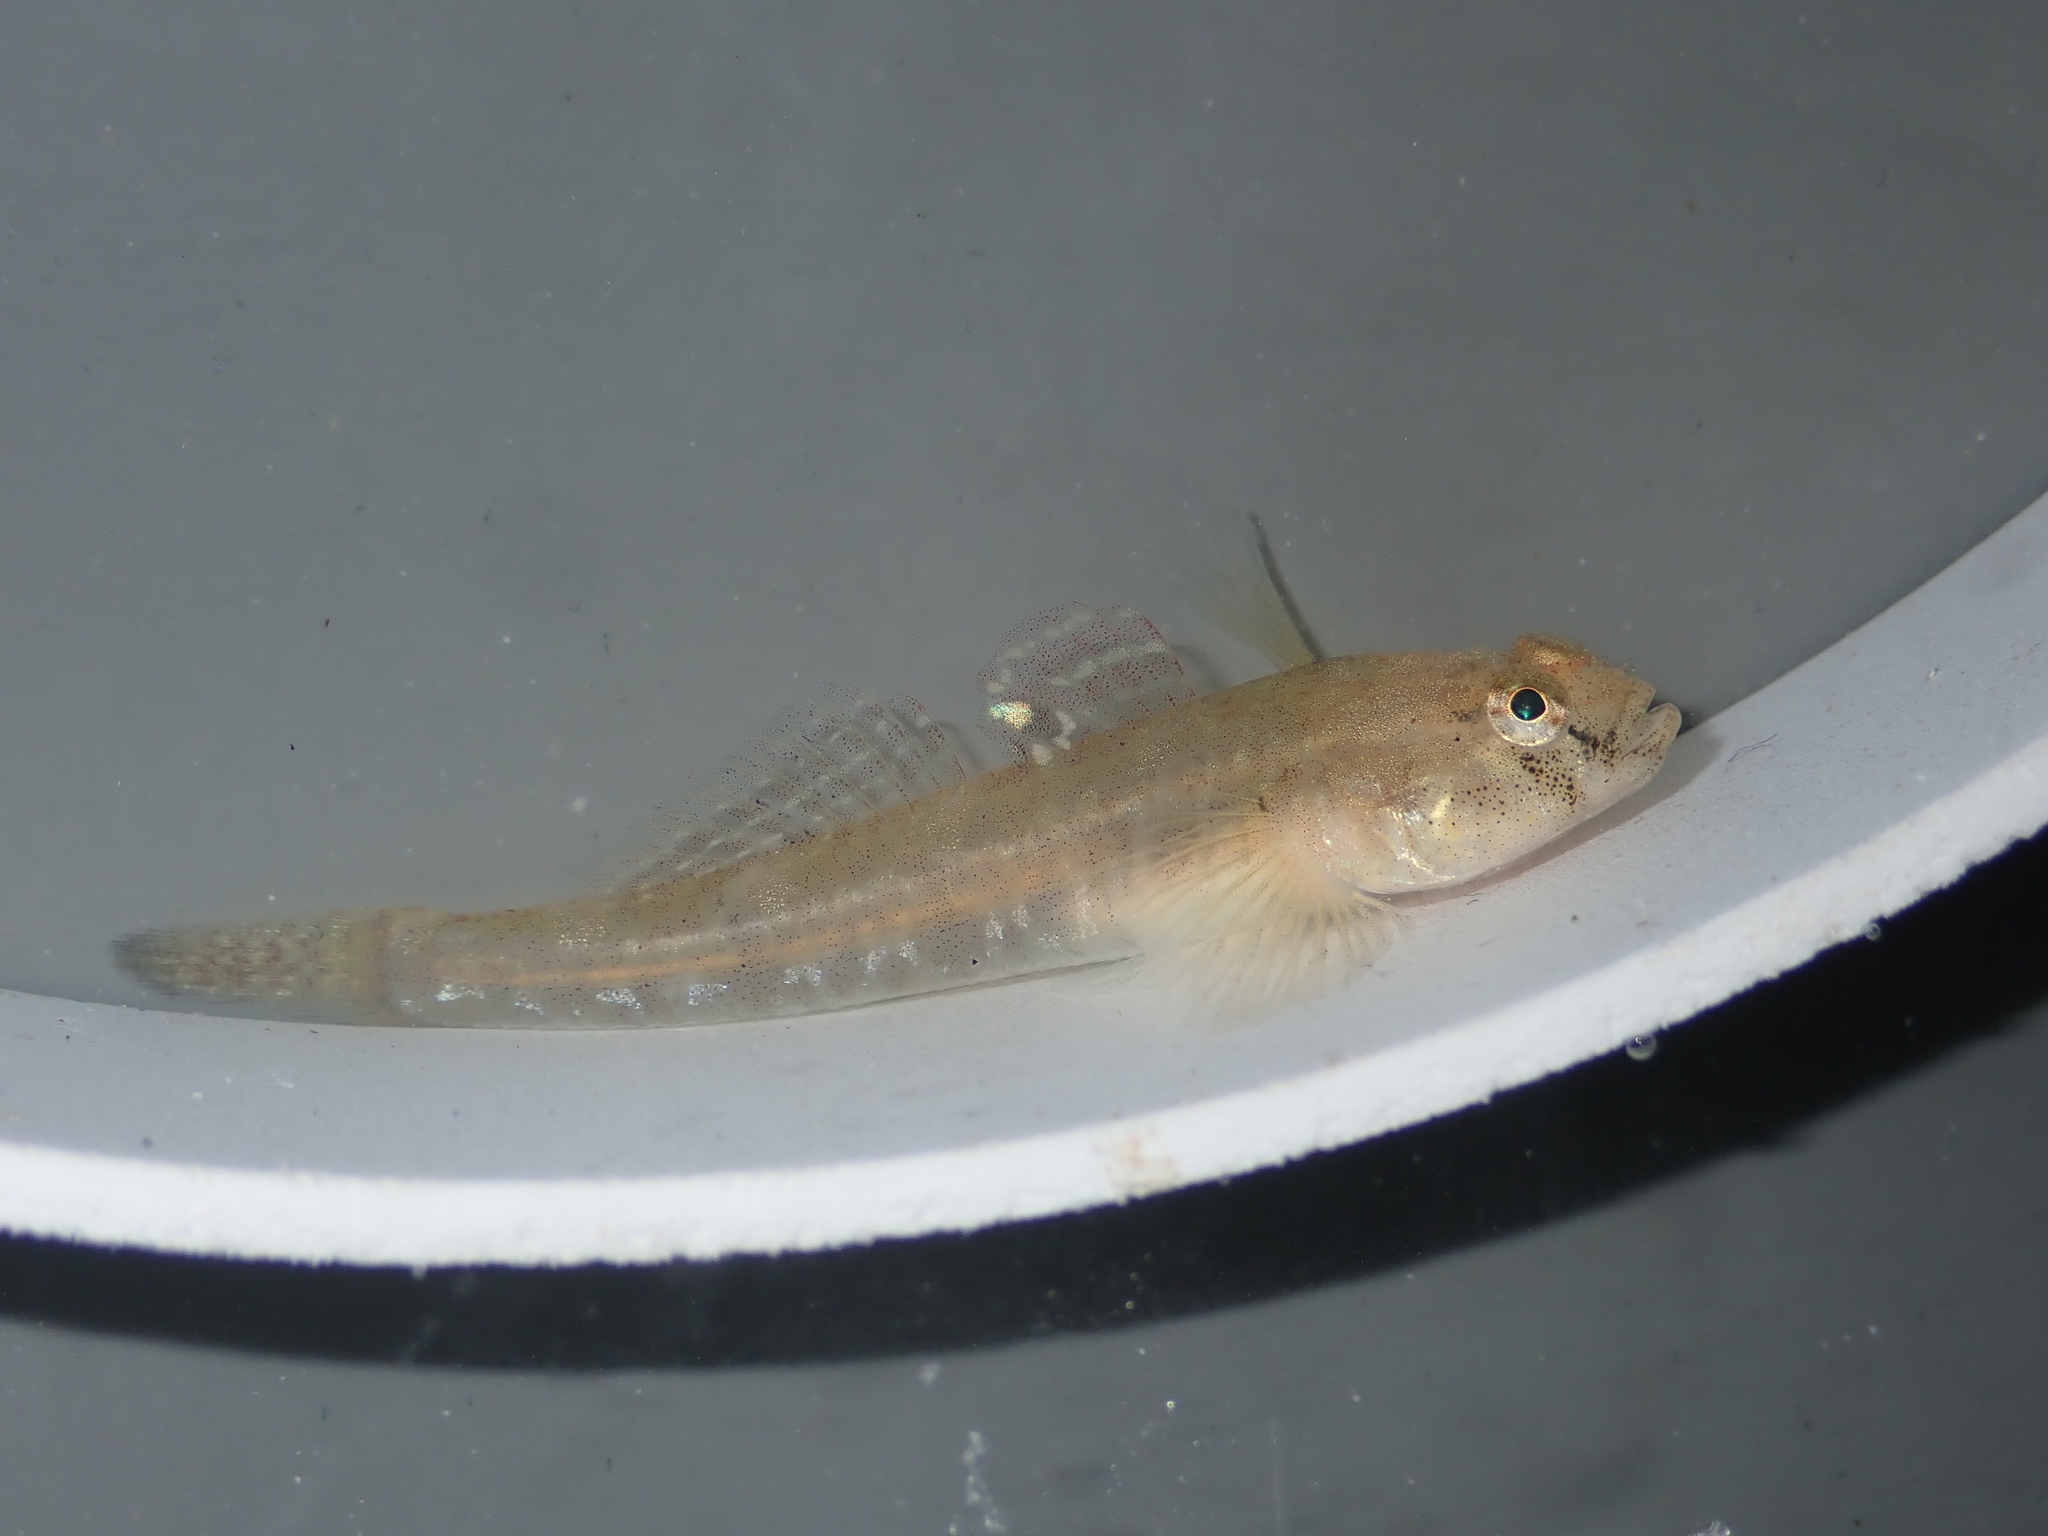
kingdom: Animalia
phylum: Chordata
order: Perciformes
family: Gobiidae
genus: Pomatoschistus
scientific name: Pomatoschistus microps
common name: Common goby
